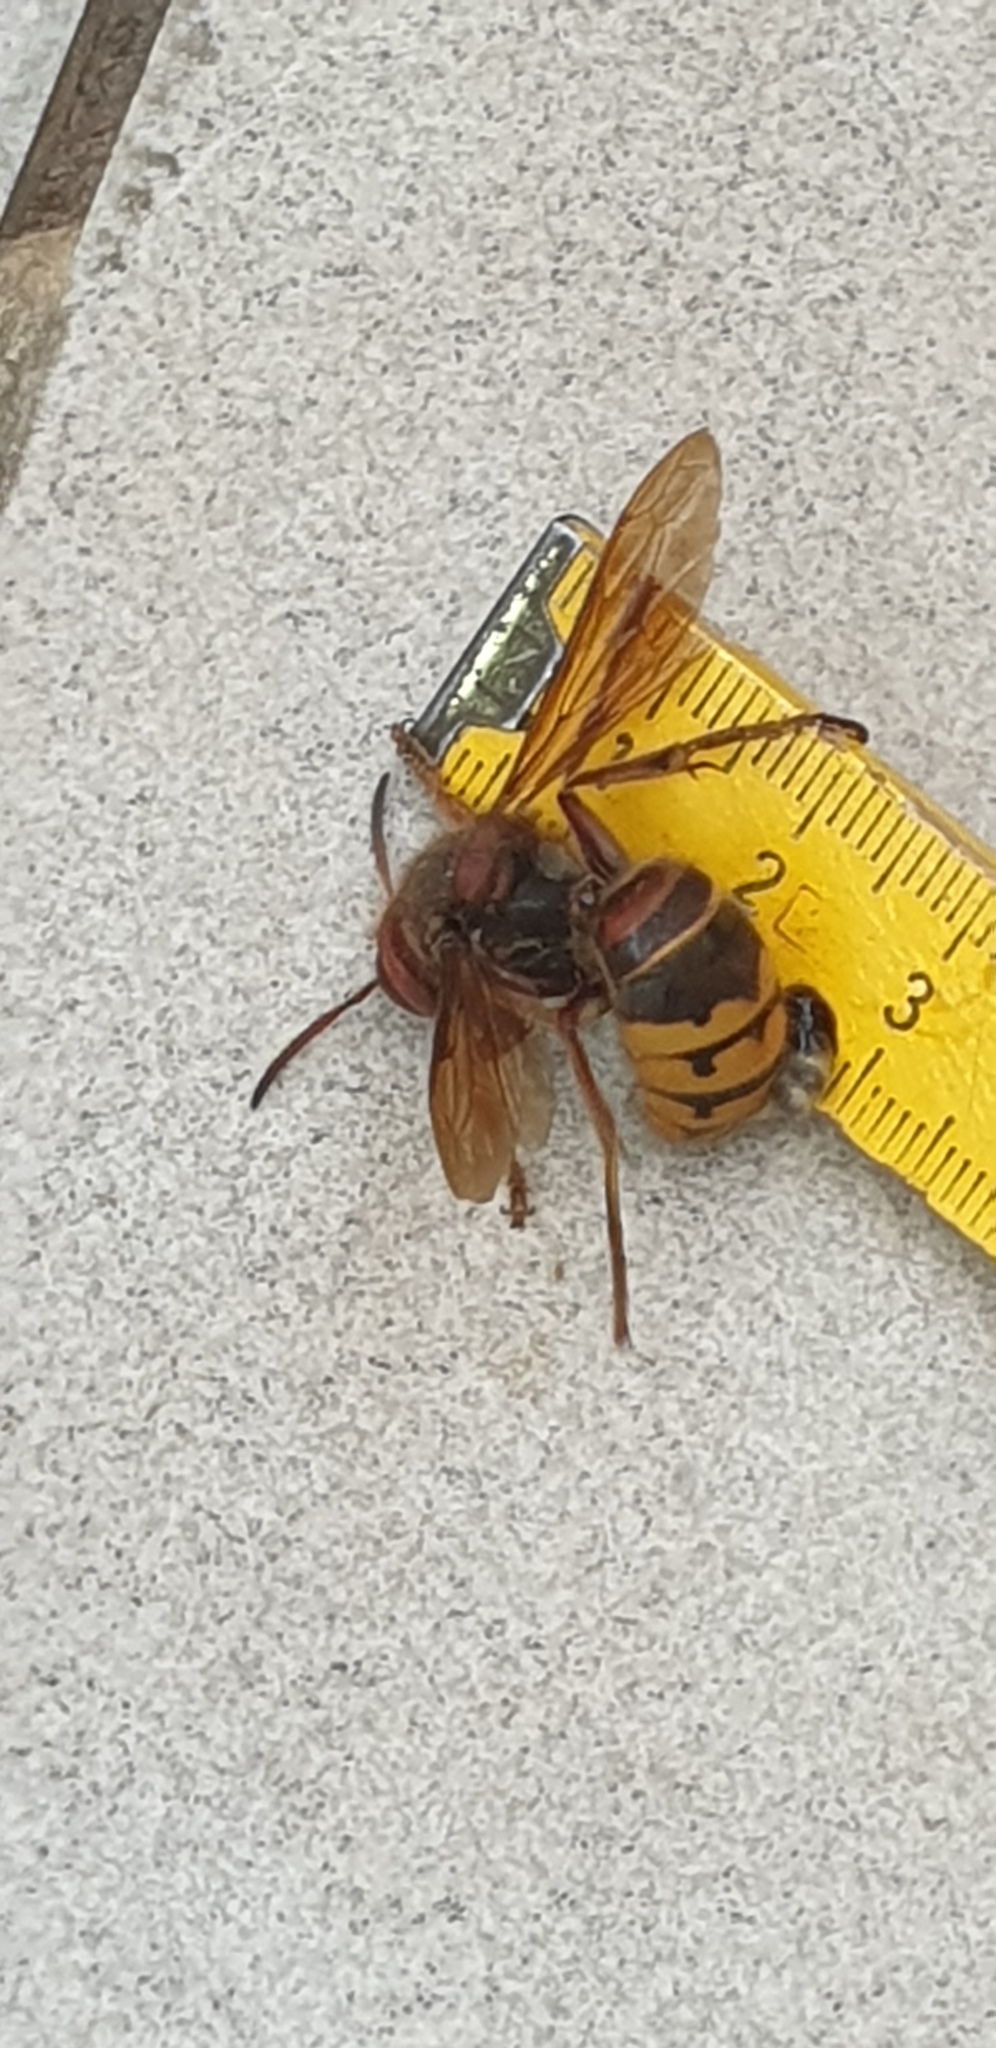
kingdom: Animalia
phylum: Arthropoda
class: Insecta
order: Hymenoptera
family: Vespidae
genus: Vespa
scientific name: Vespa crabro
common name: Hornet
